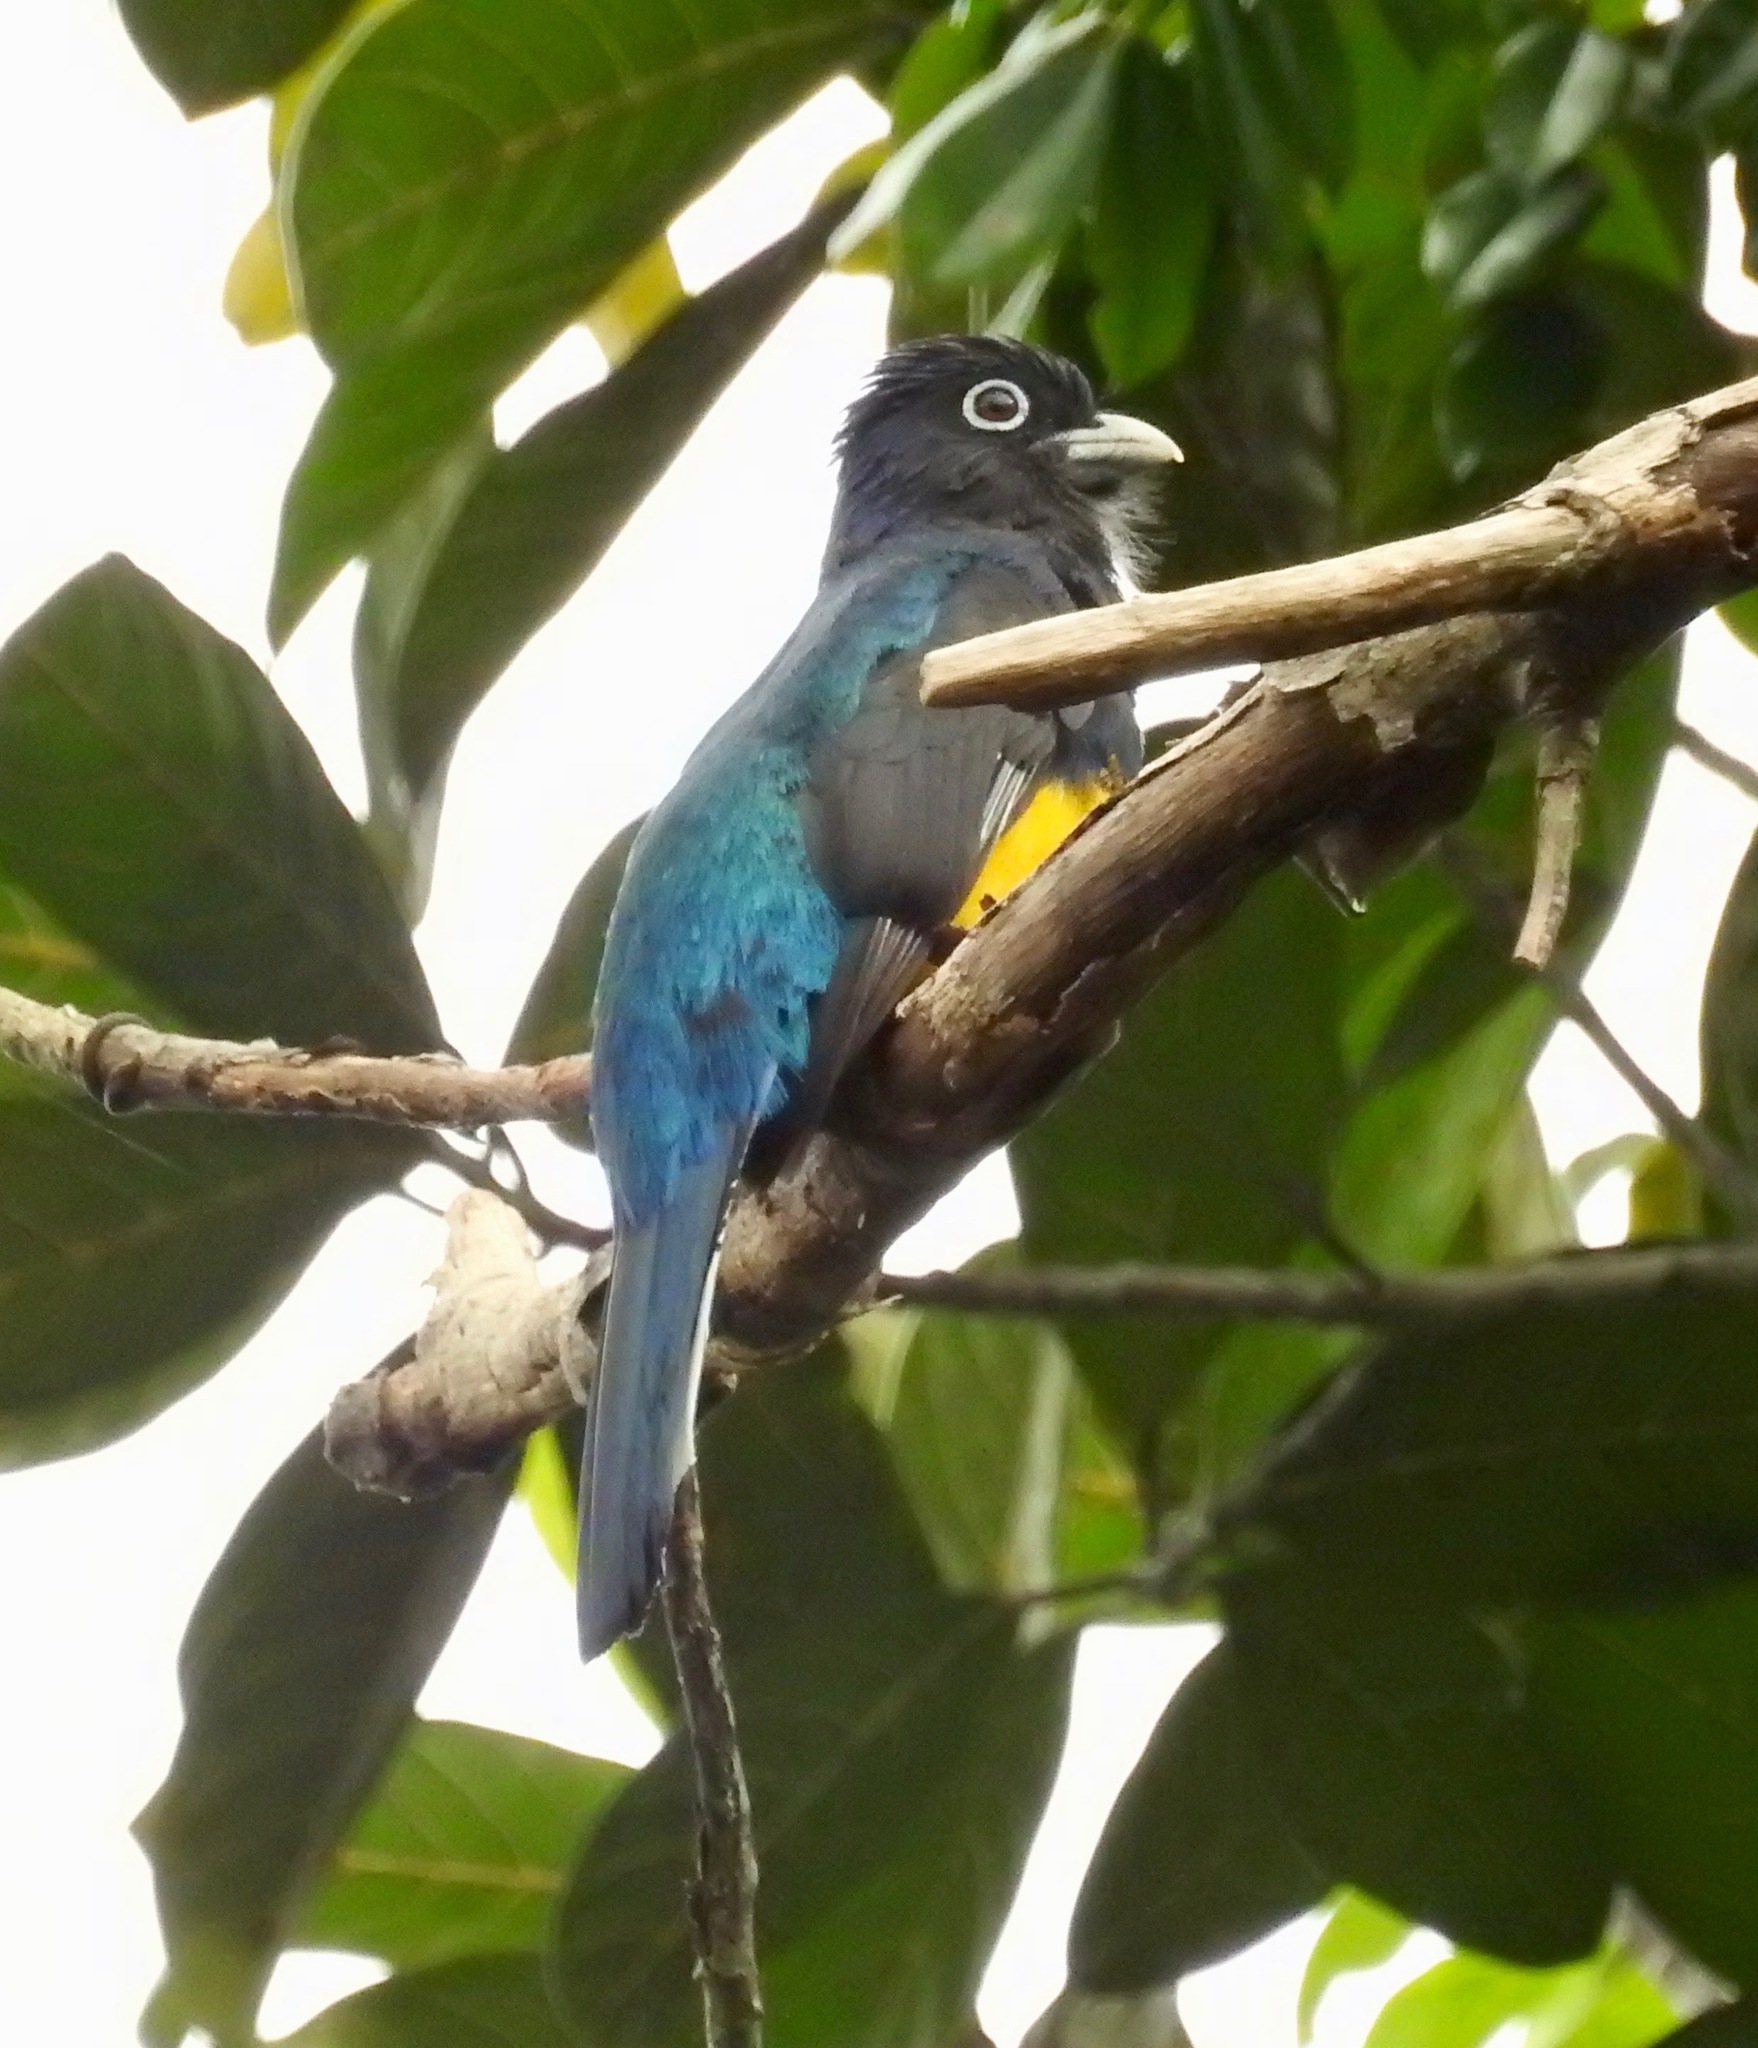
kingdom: Animalia
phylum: Chordata
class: Aves
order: Trogoniformes
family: Trogonidae
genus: Trogon
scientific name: Trogon viridis
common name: Green-backed trogon
